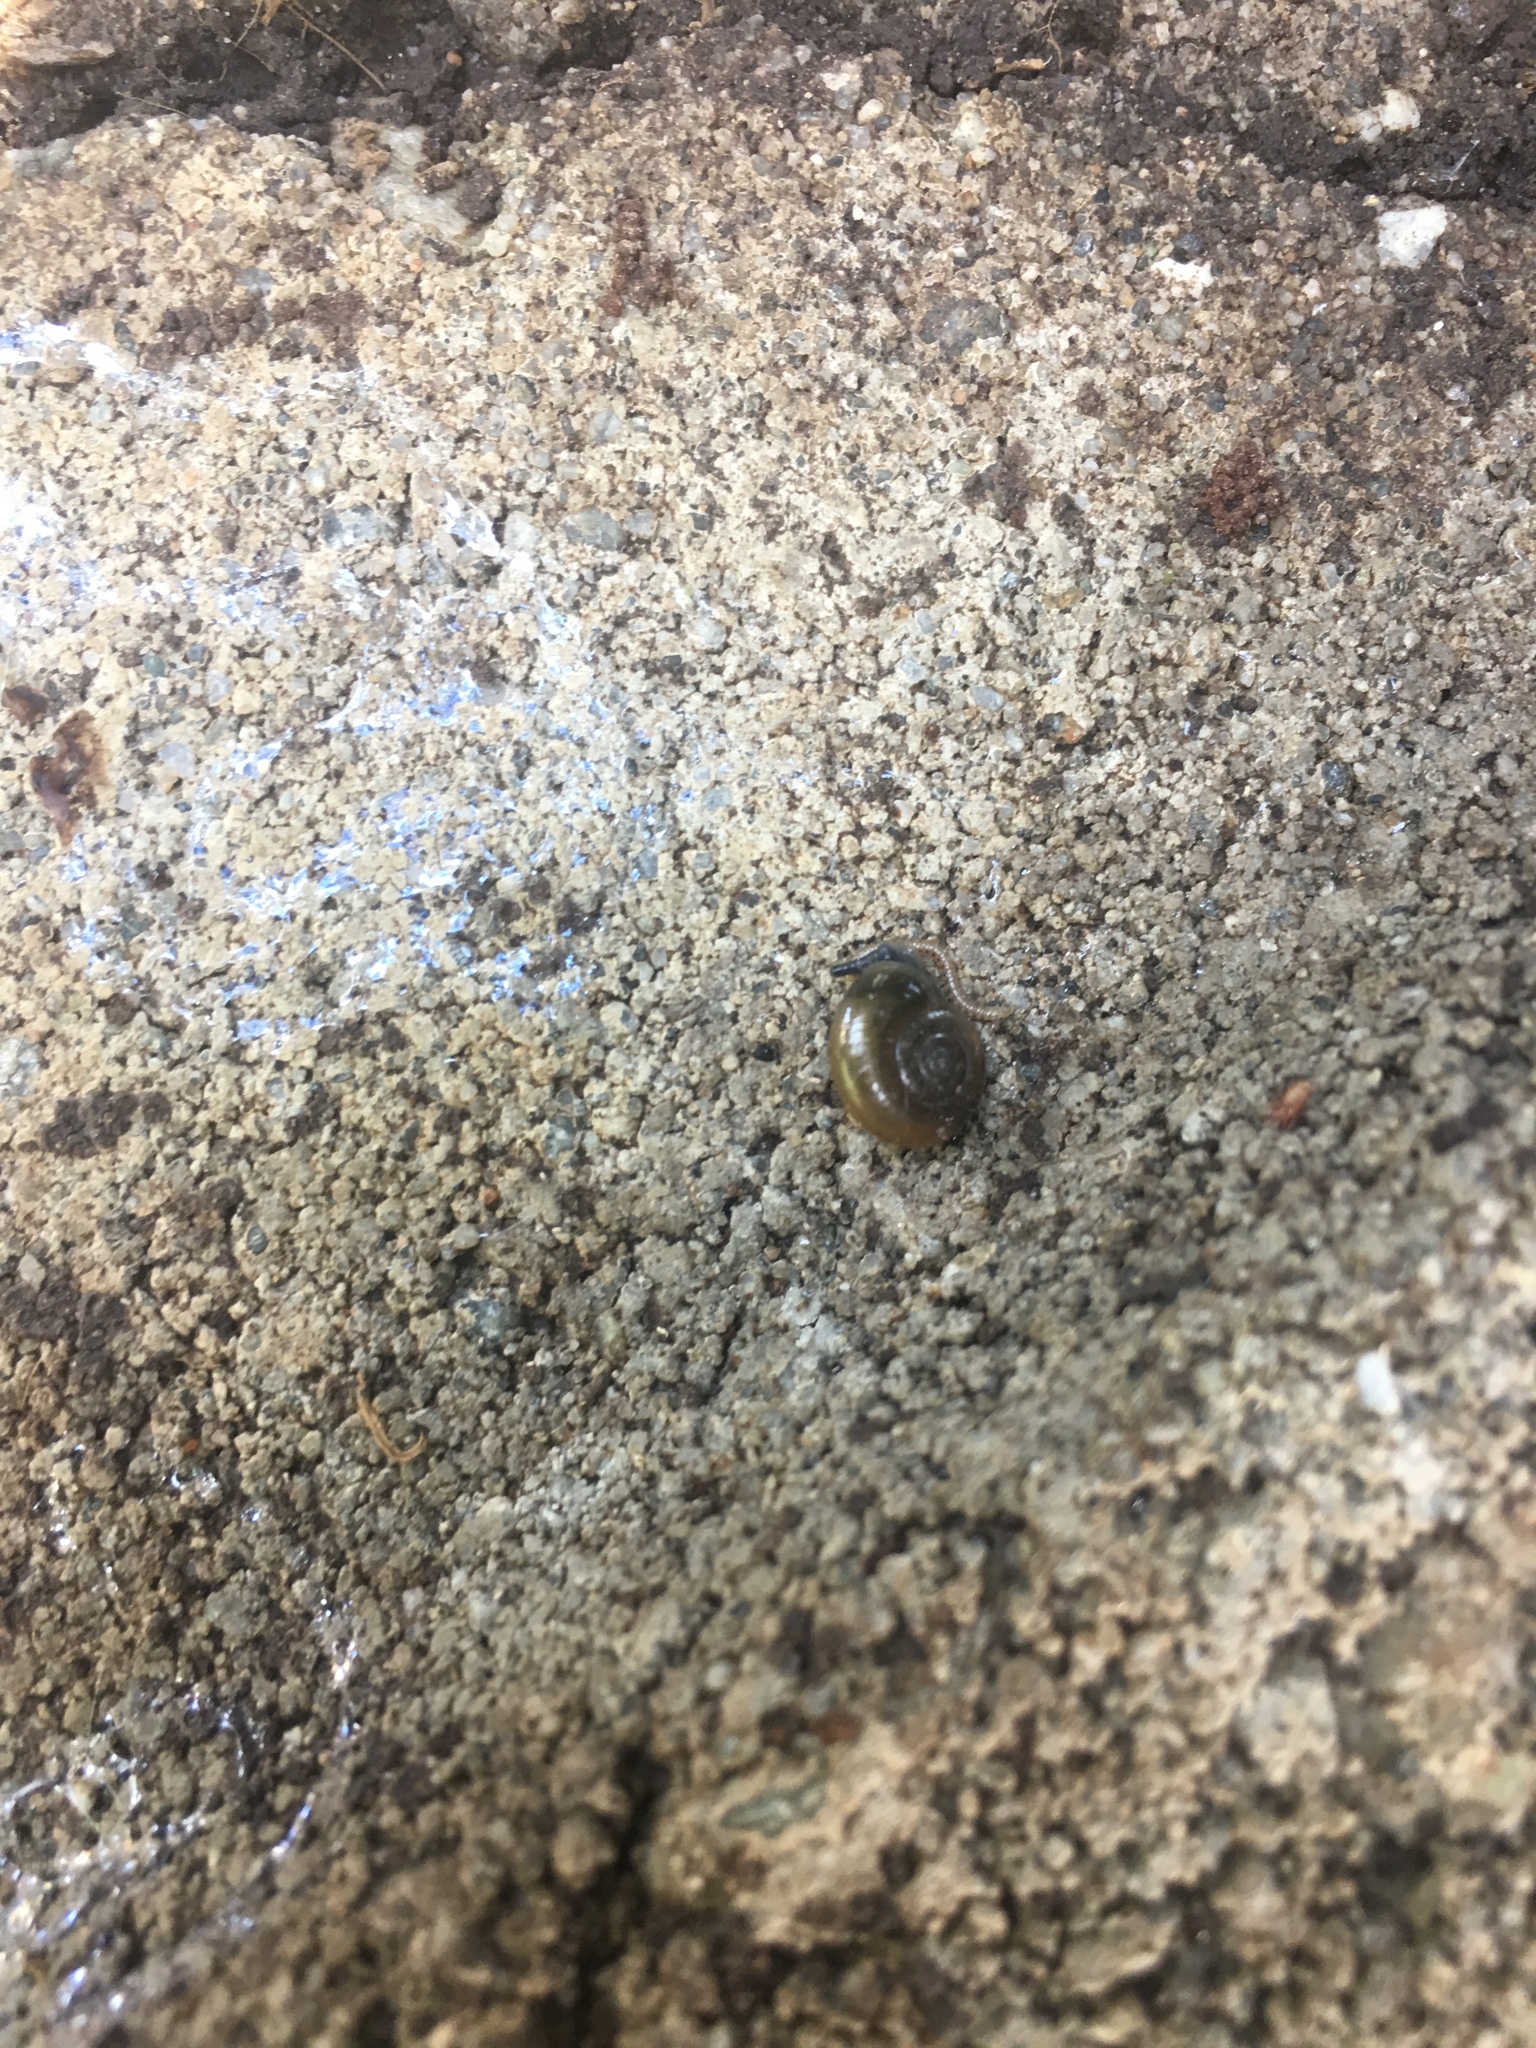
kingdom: Animalia
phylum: Mollusca
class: Gastropoda
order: Stylommatophora
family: Oxychilidae
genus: Oxychilus
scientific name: Oxychilus draparnaudi
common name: Draparnaud's glass snail
